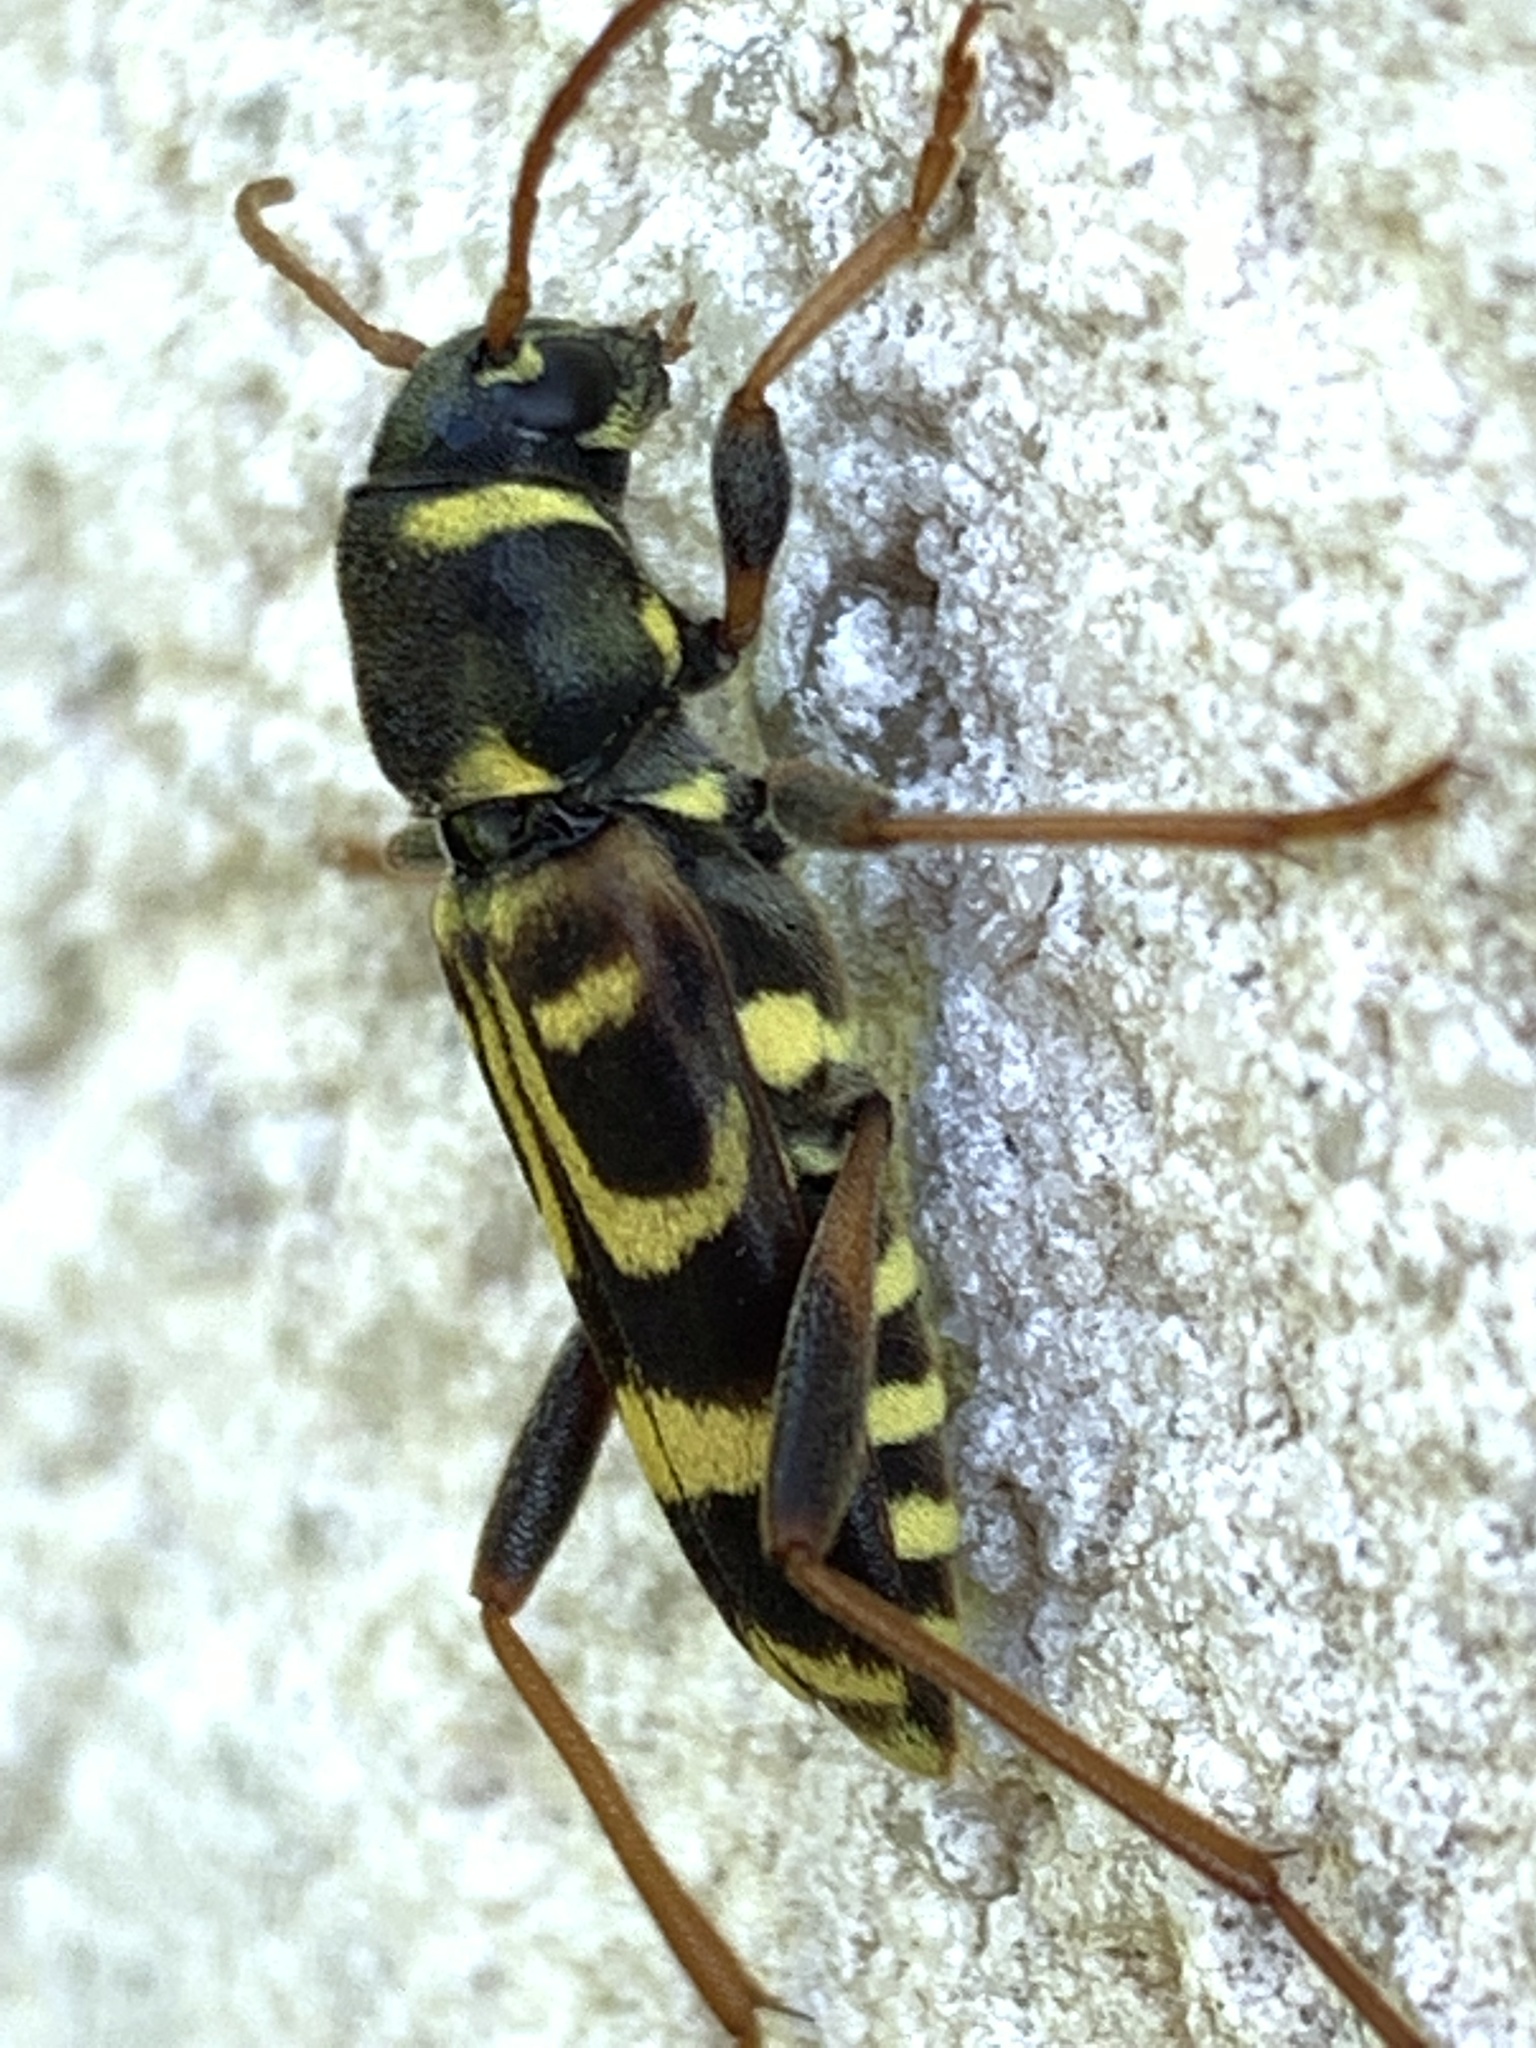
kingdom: Animalia
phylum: Arthropoda
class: Insecta
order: Coleoptera
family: Cerambycidae
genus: Xylotrechus
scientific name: Xylotrechus arvicola
